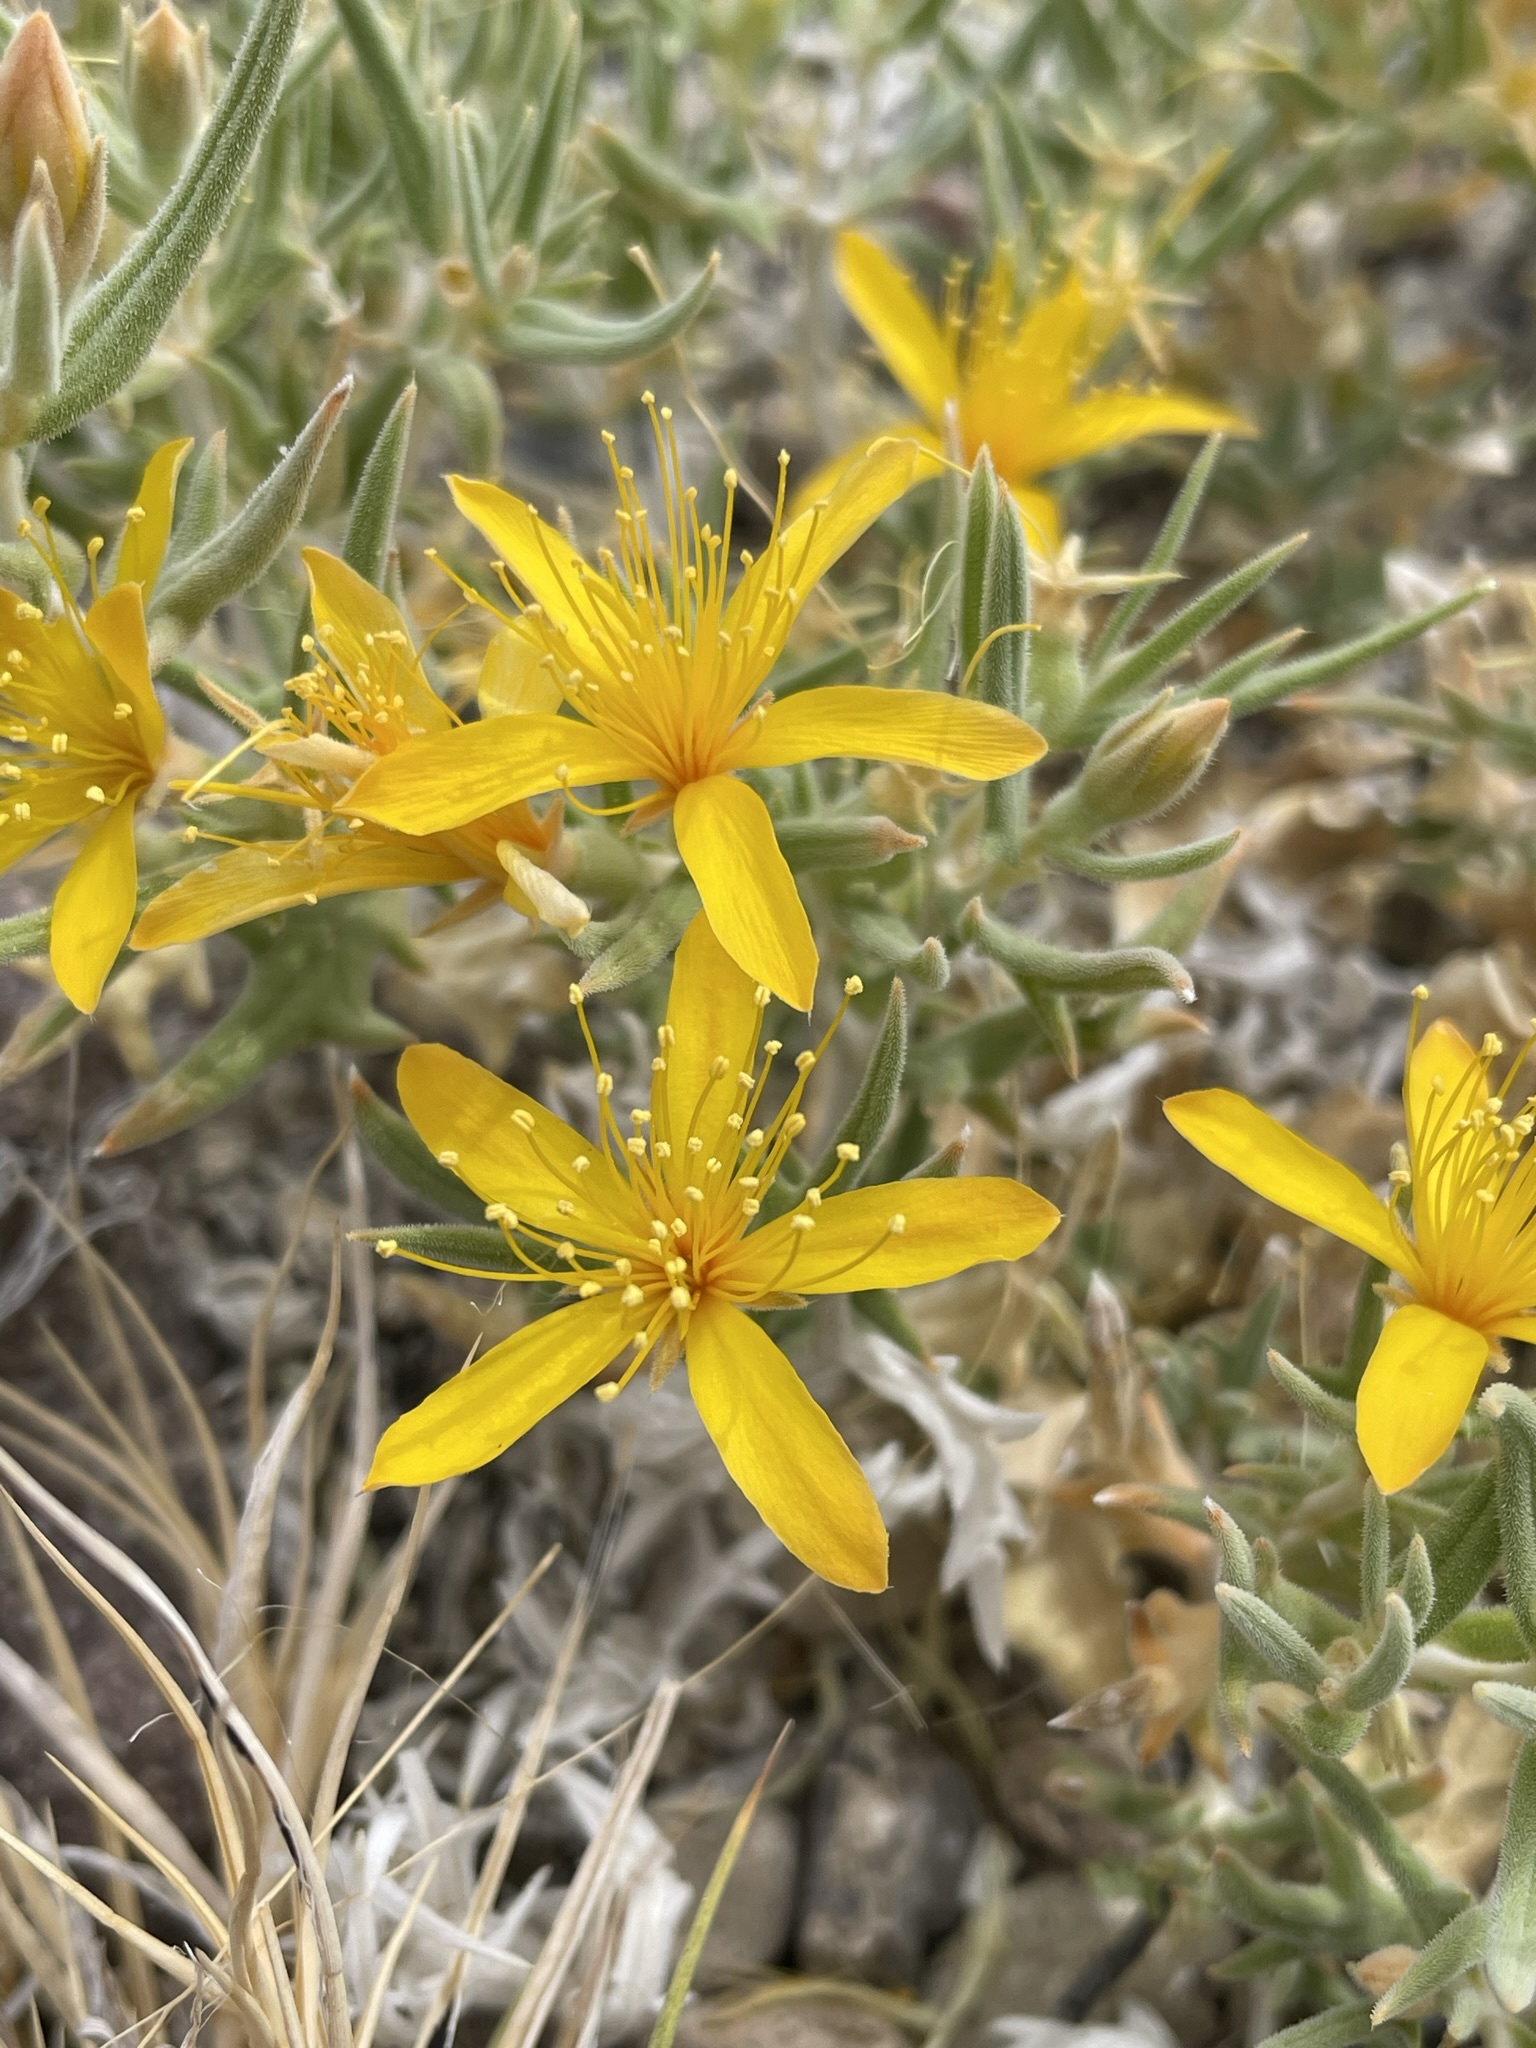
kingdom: Plantae
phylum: Tracheophyta
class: Magnoliopsida
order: Cornales
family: Loasaceae
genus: Mentzelia
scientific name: Mentzelia torreyi
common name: Torrey's blazingstar
